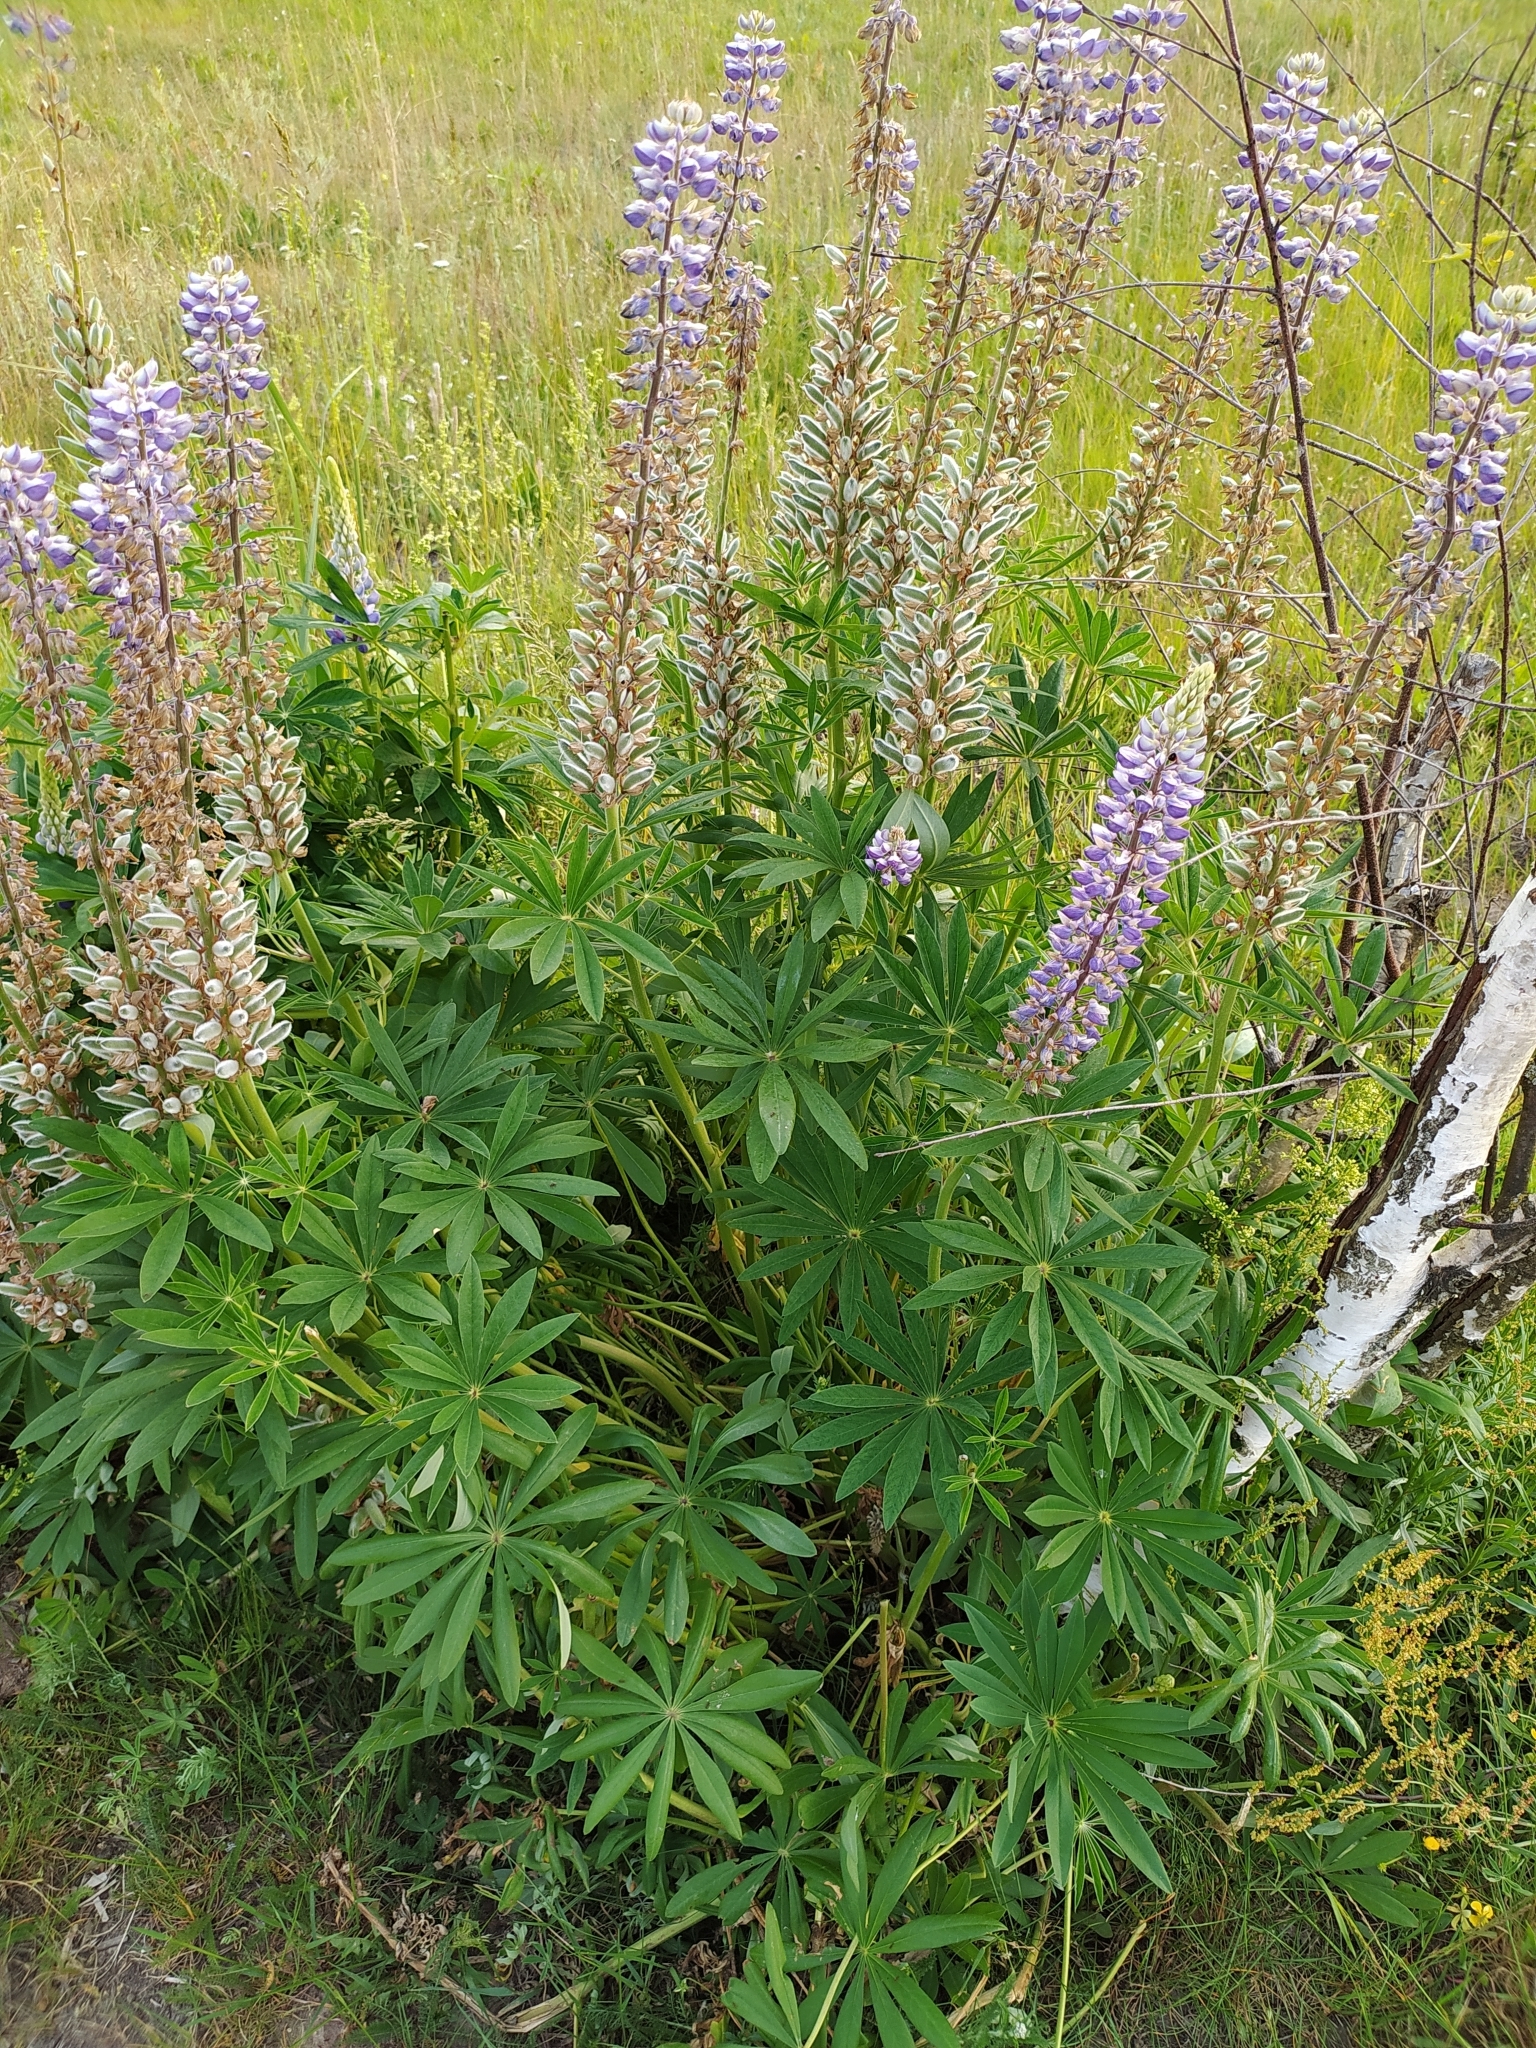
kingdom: Plantae
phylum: Tracheophyta
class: Magnoliopsida
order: Fabales
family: Fabaceae
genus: Lupinus
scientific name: Lupinus polyphyllus
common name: Garden lupin
